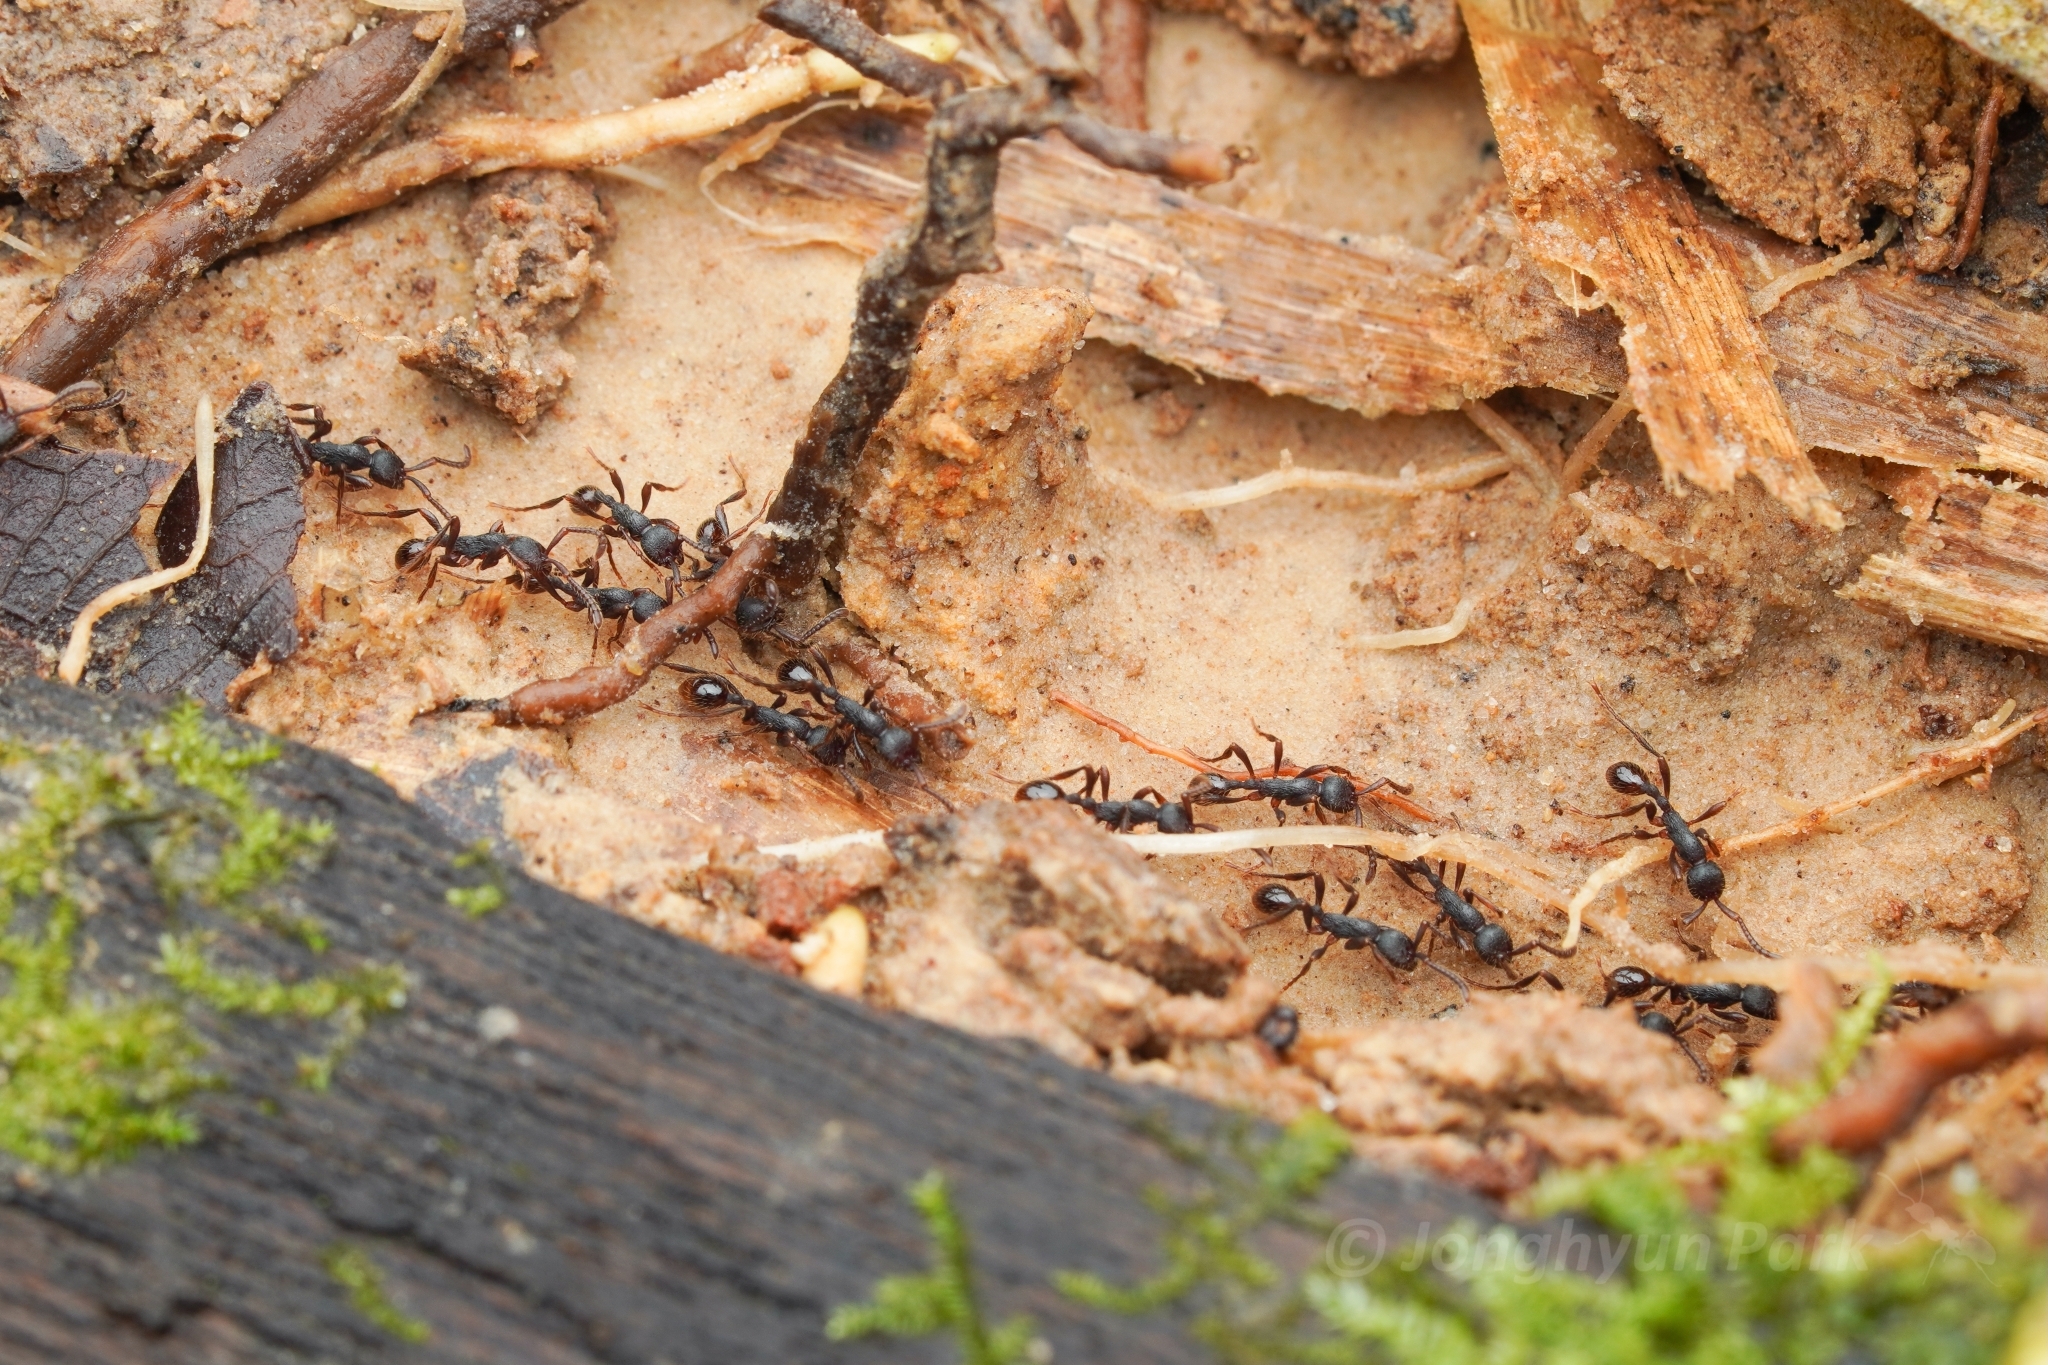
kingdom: Animalia
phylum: Arthropoda
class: Insecta
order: Hymenoptera
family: Formicidae
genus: Dolichoderus
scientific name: Dolichoderus thoracicus
